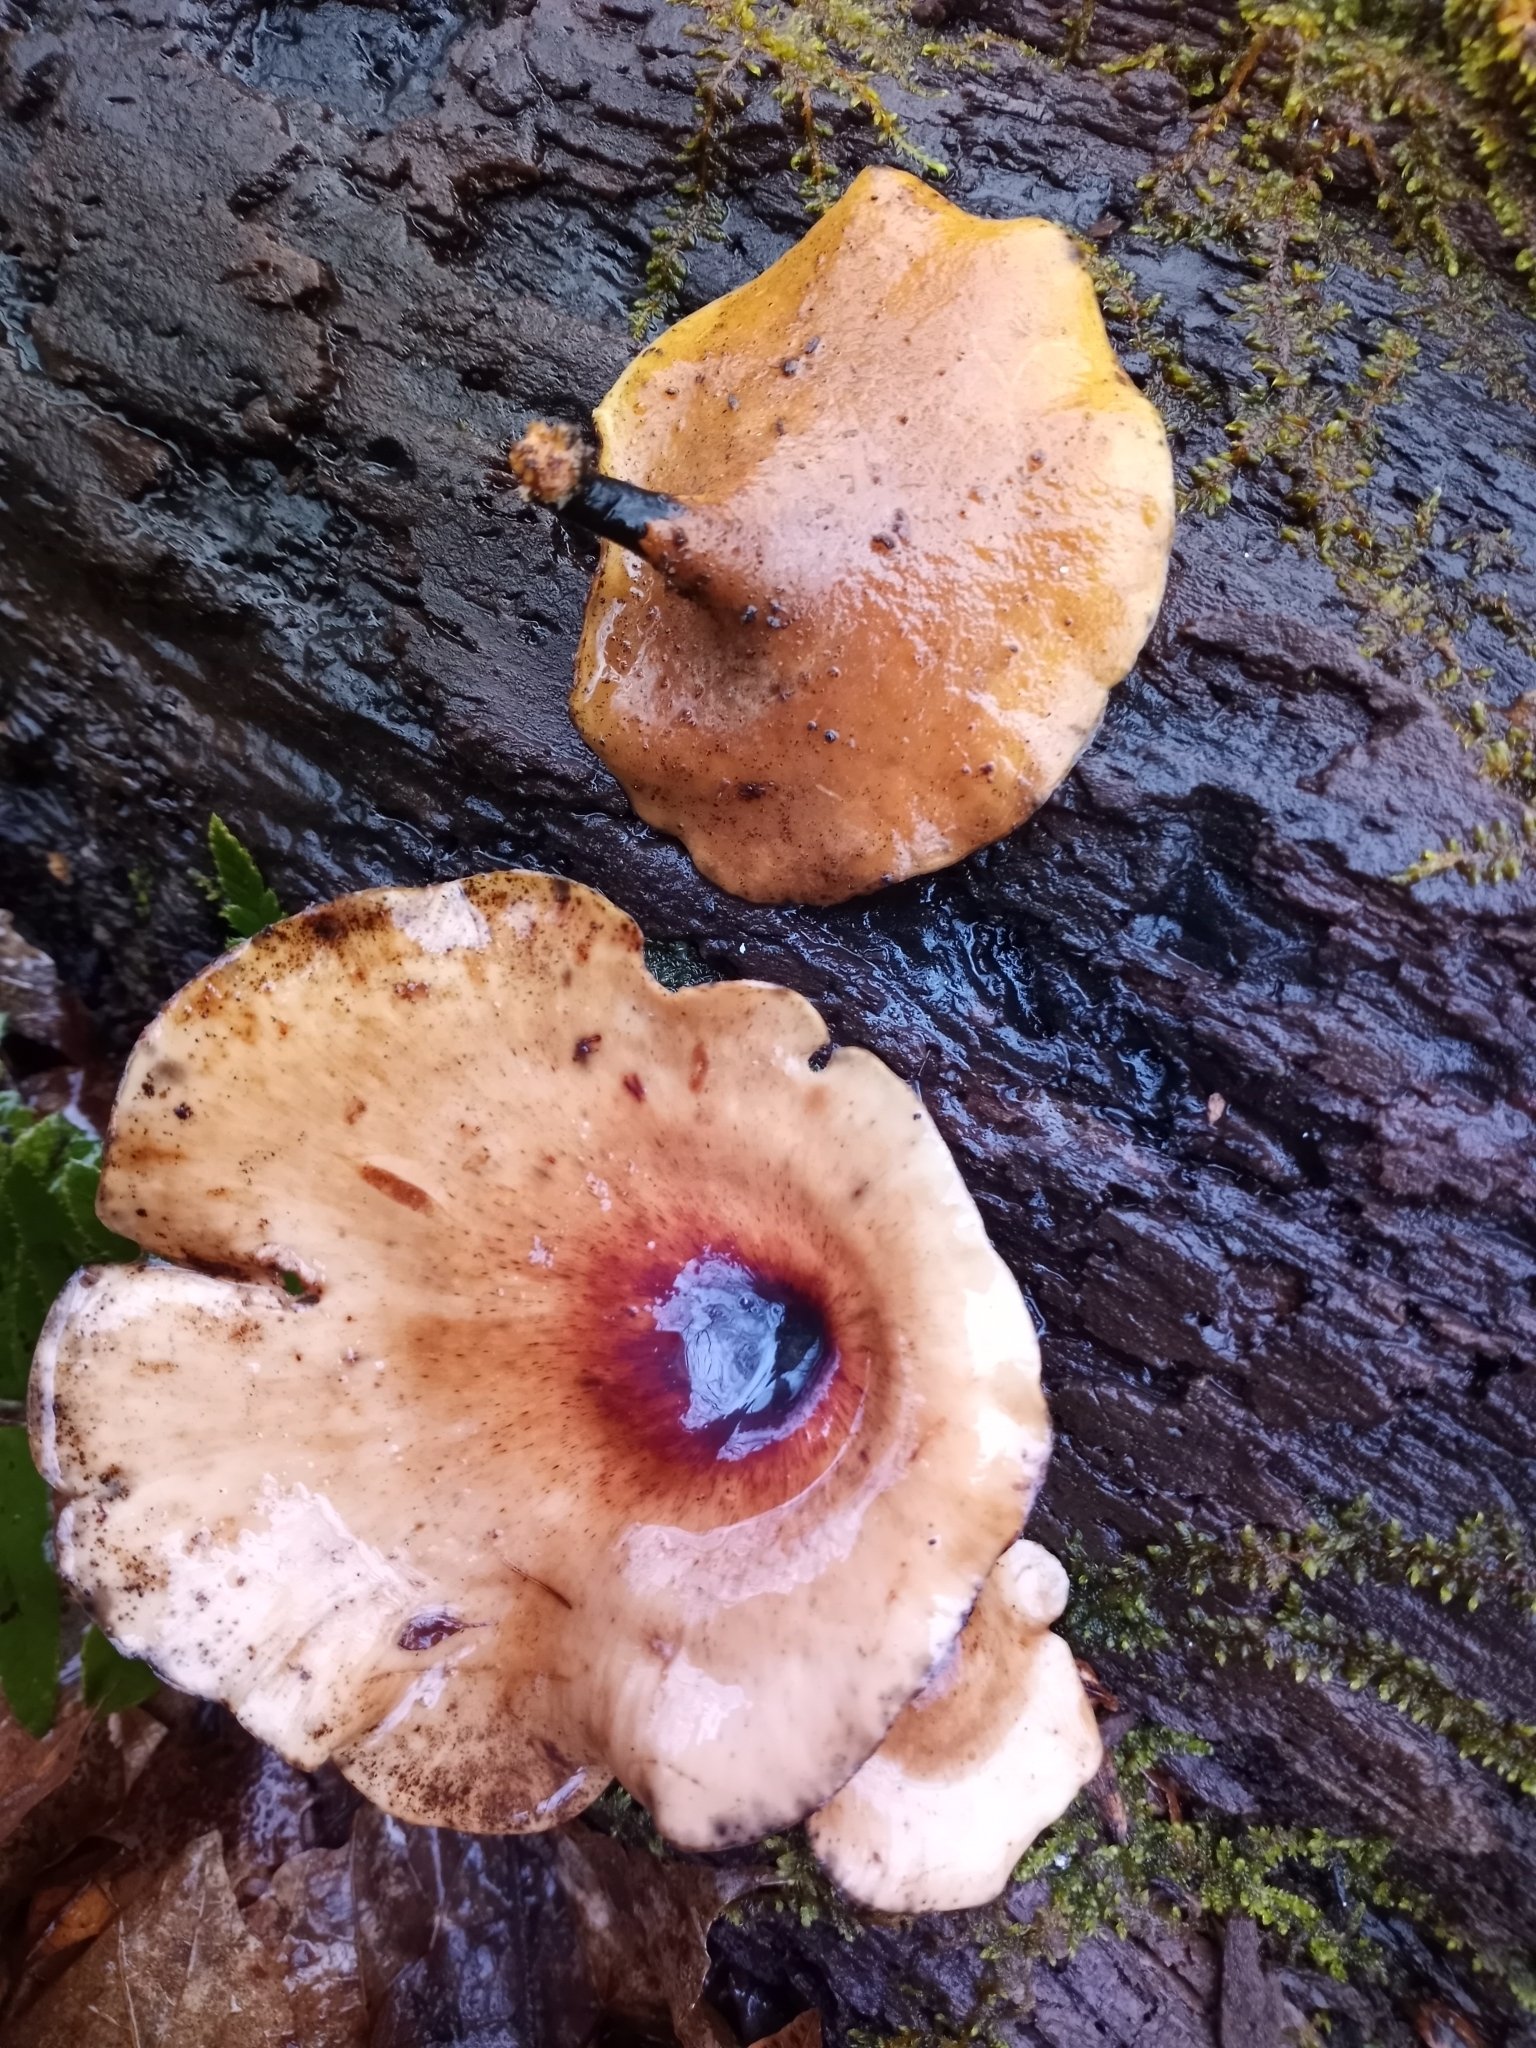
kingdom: Fungi
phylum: Basidiomycota
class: Agaricomycetes
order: Polyporales
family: Polyporaceae
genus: Picipes
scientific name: Picipes badius
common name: Bay polypore
